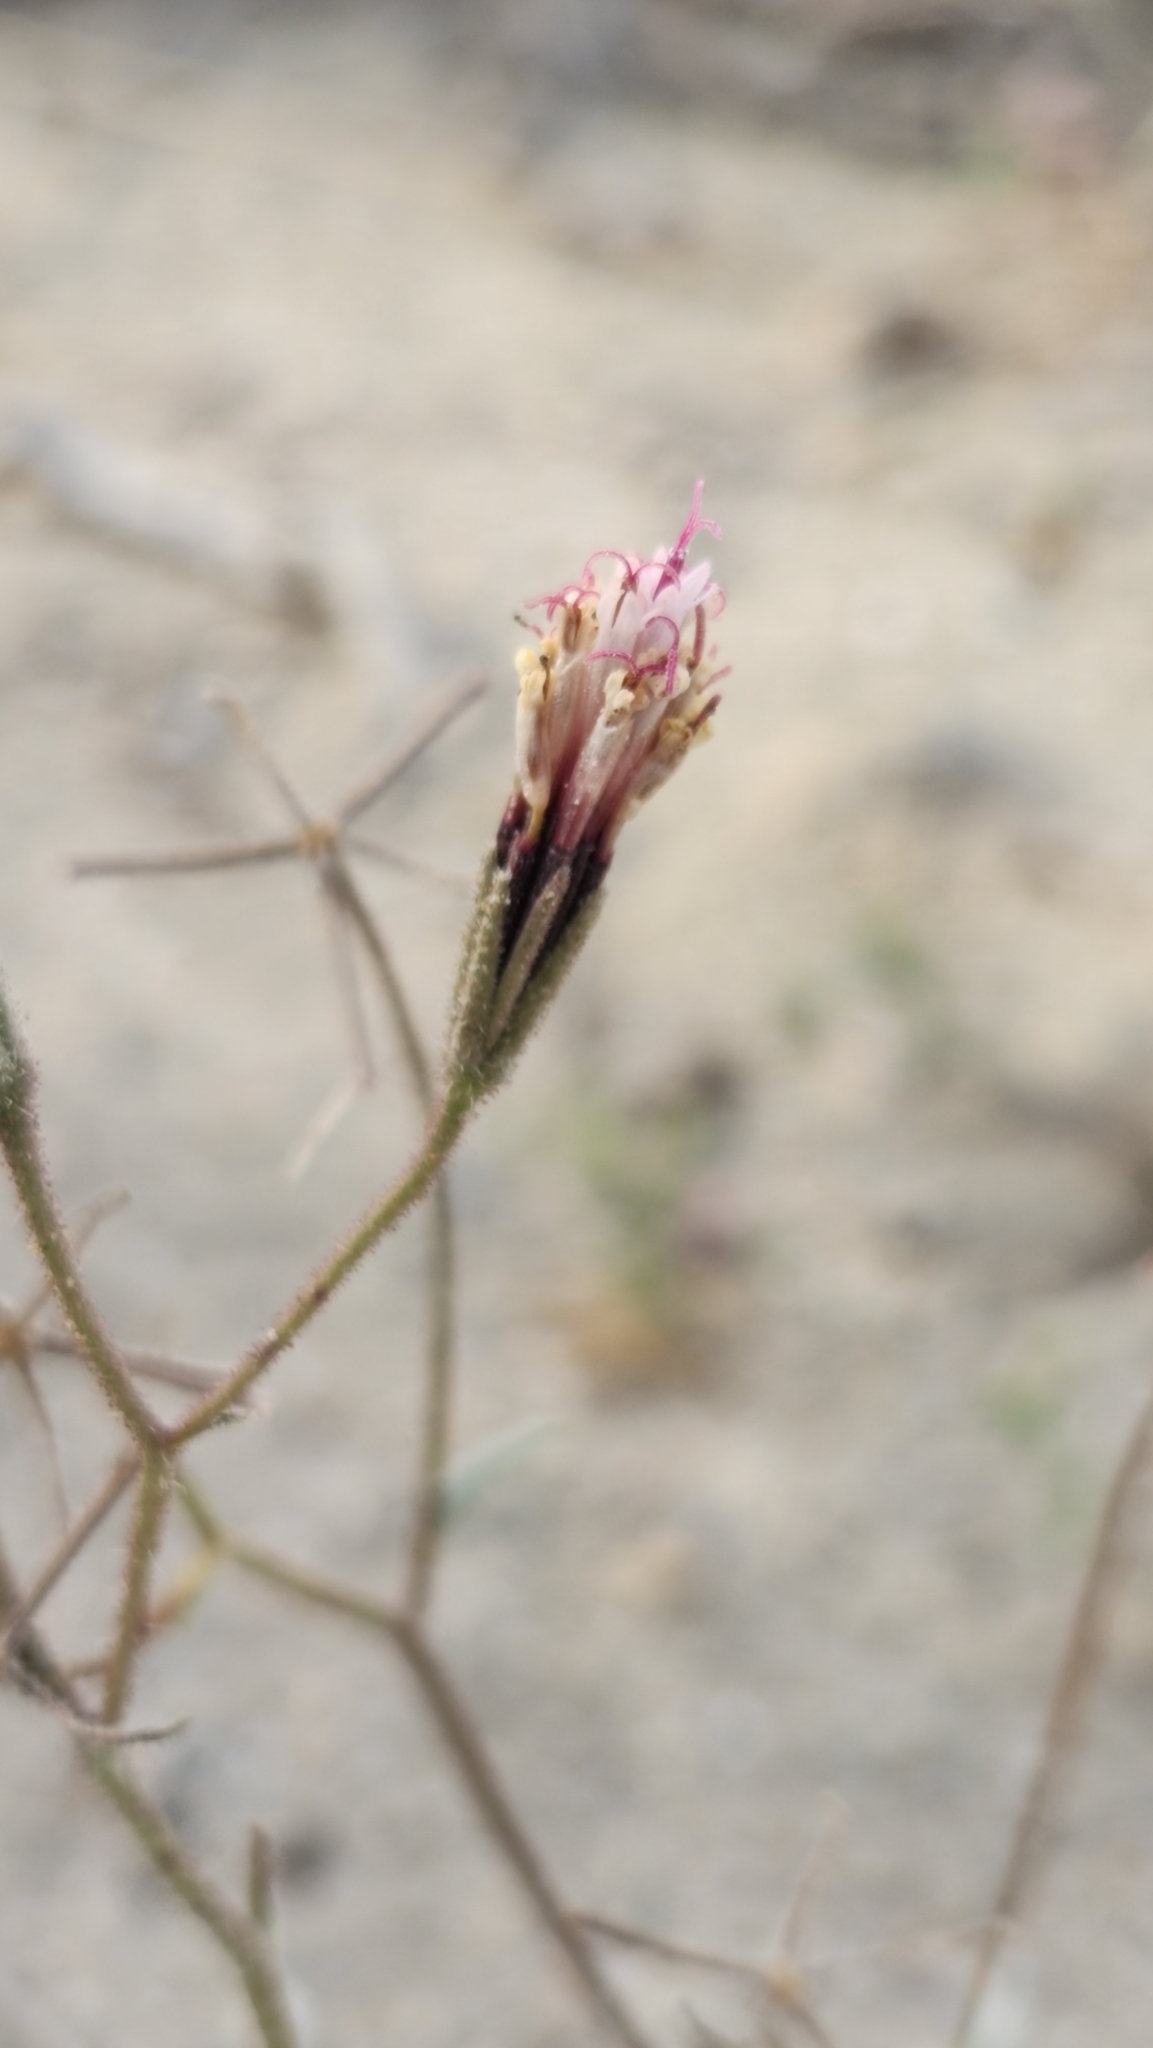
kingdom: Plantae
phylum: Tracheophyta
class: Magnoliopsida
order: Asterales
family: Asteraceae
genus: Palafoxia
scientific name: Palafoxia arida
